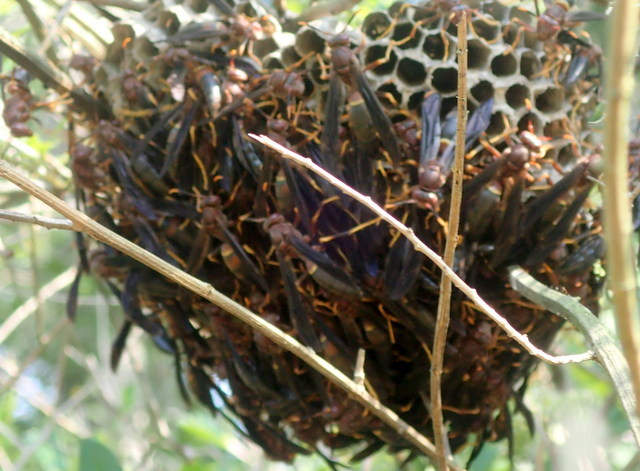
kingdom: Animalia
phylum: Arthropoda
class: Insecta
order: Hymenoptera
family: Eumenidae
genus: Polistes
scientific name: Polistes annularis
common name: Ringed paper wasp
